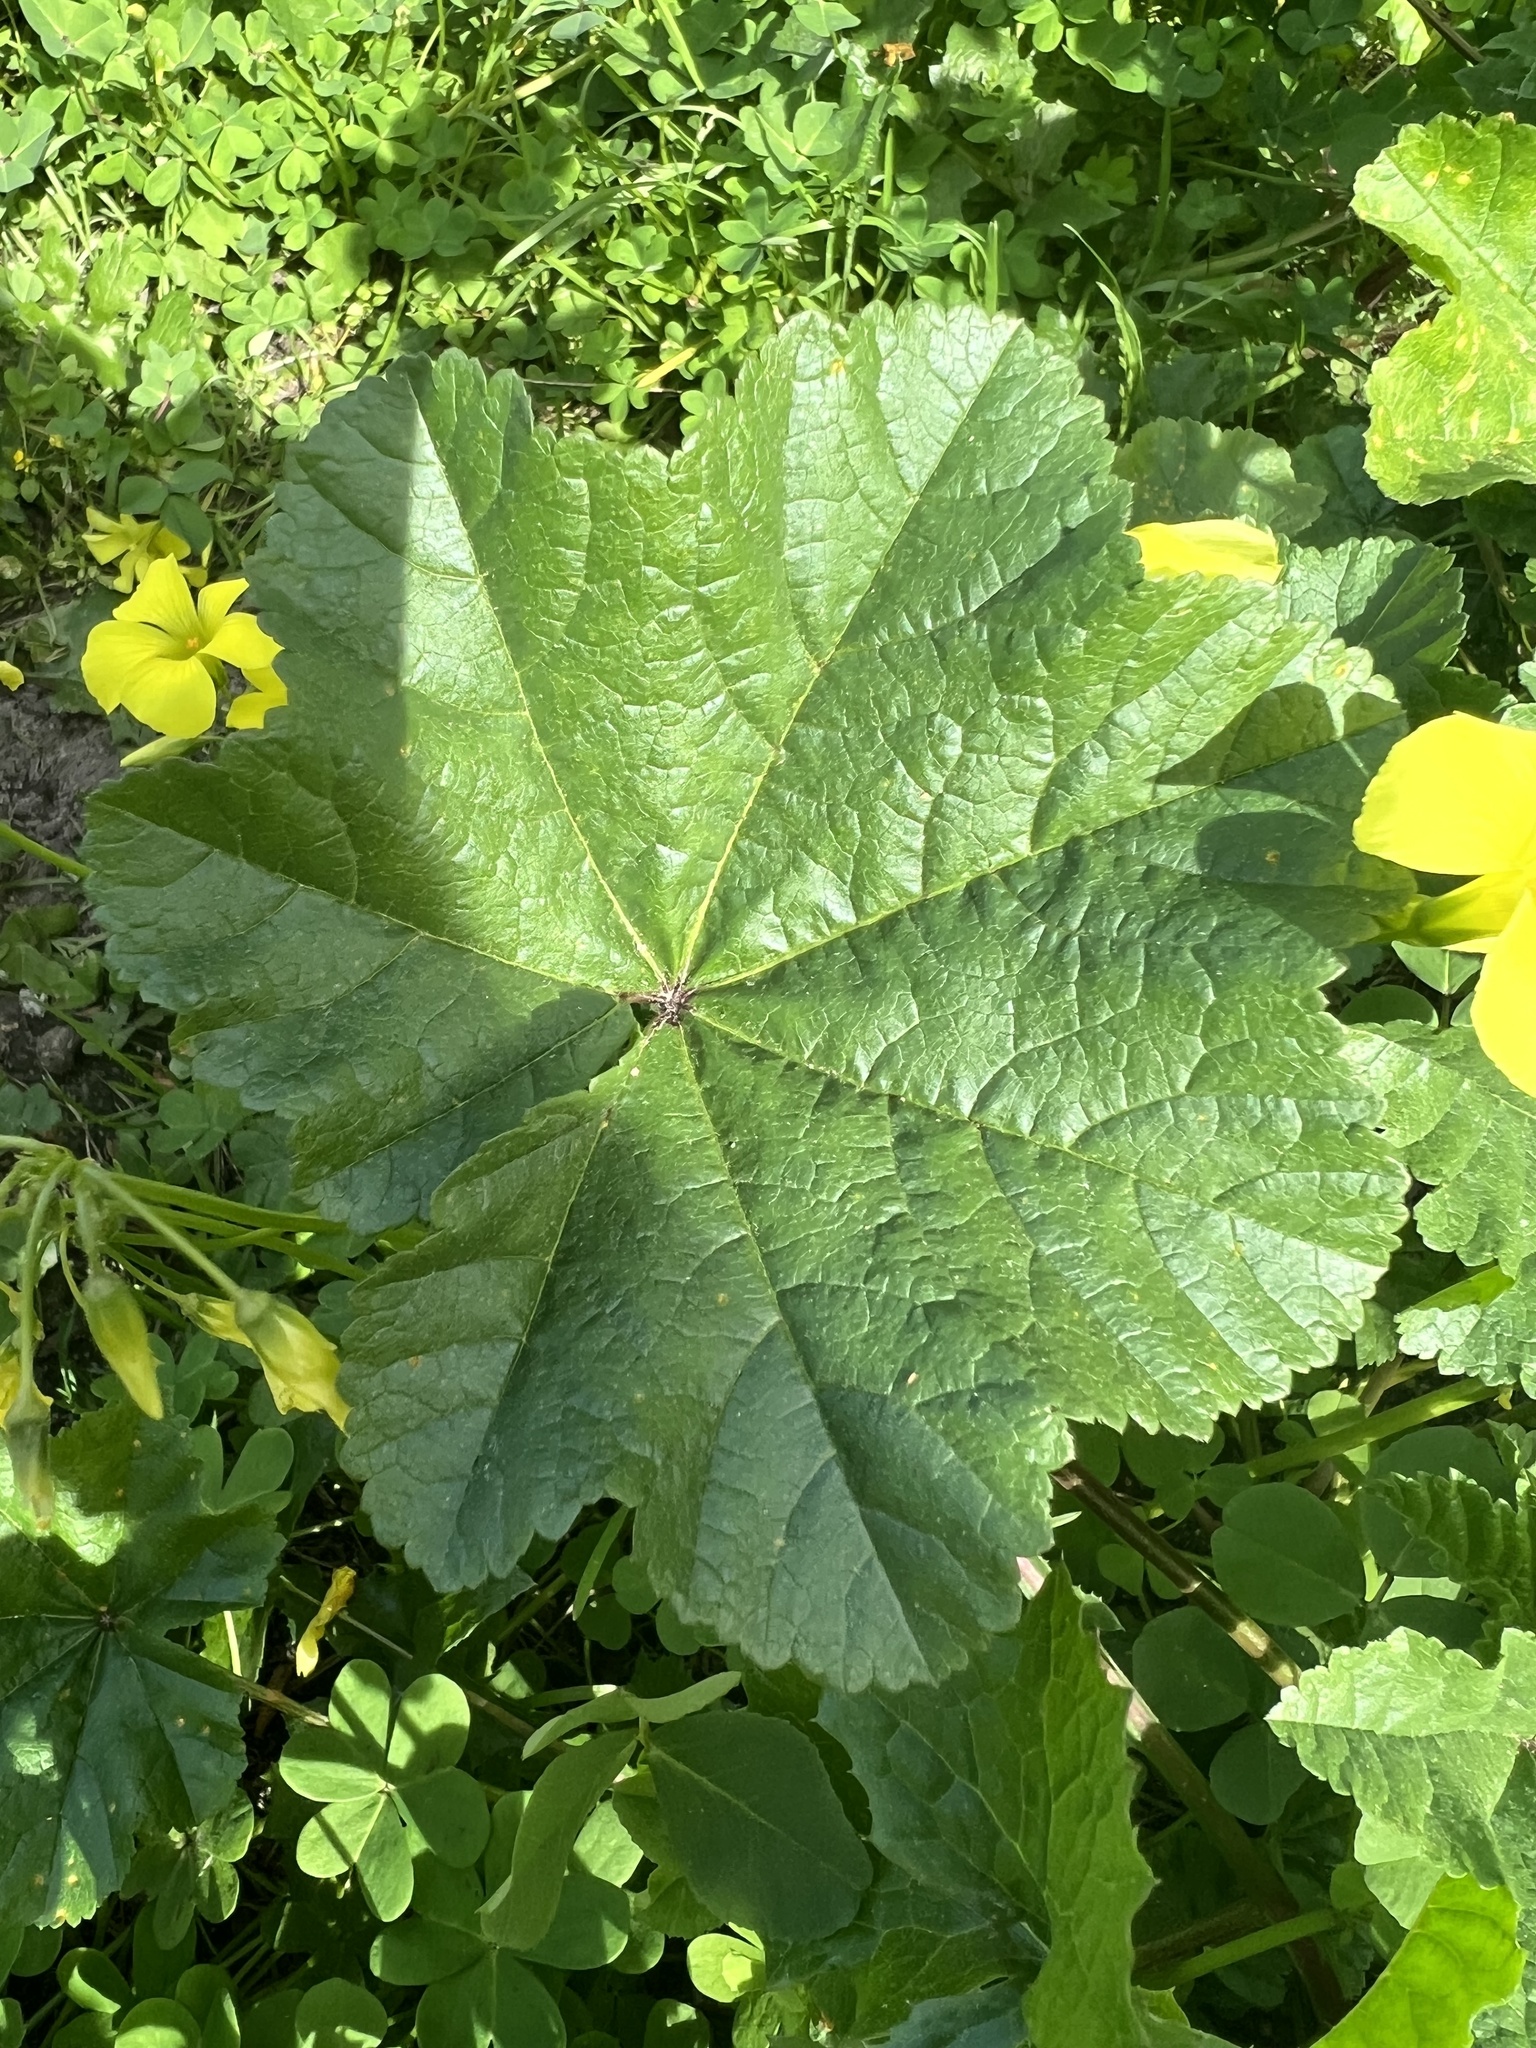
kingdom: Plantae
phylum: Tracheophyta
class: Magnoliopsida
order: Malvales
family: Malvaceae
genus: Malva
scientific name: Malva
